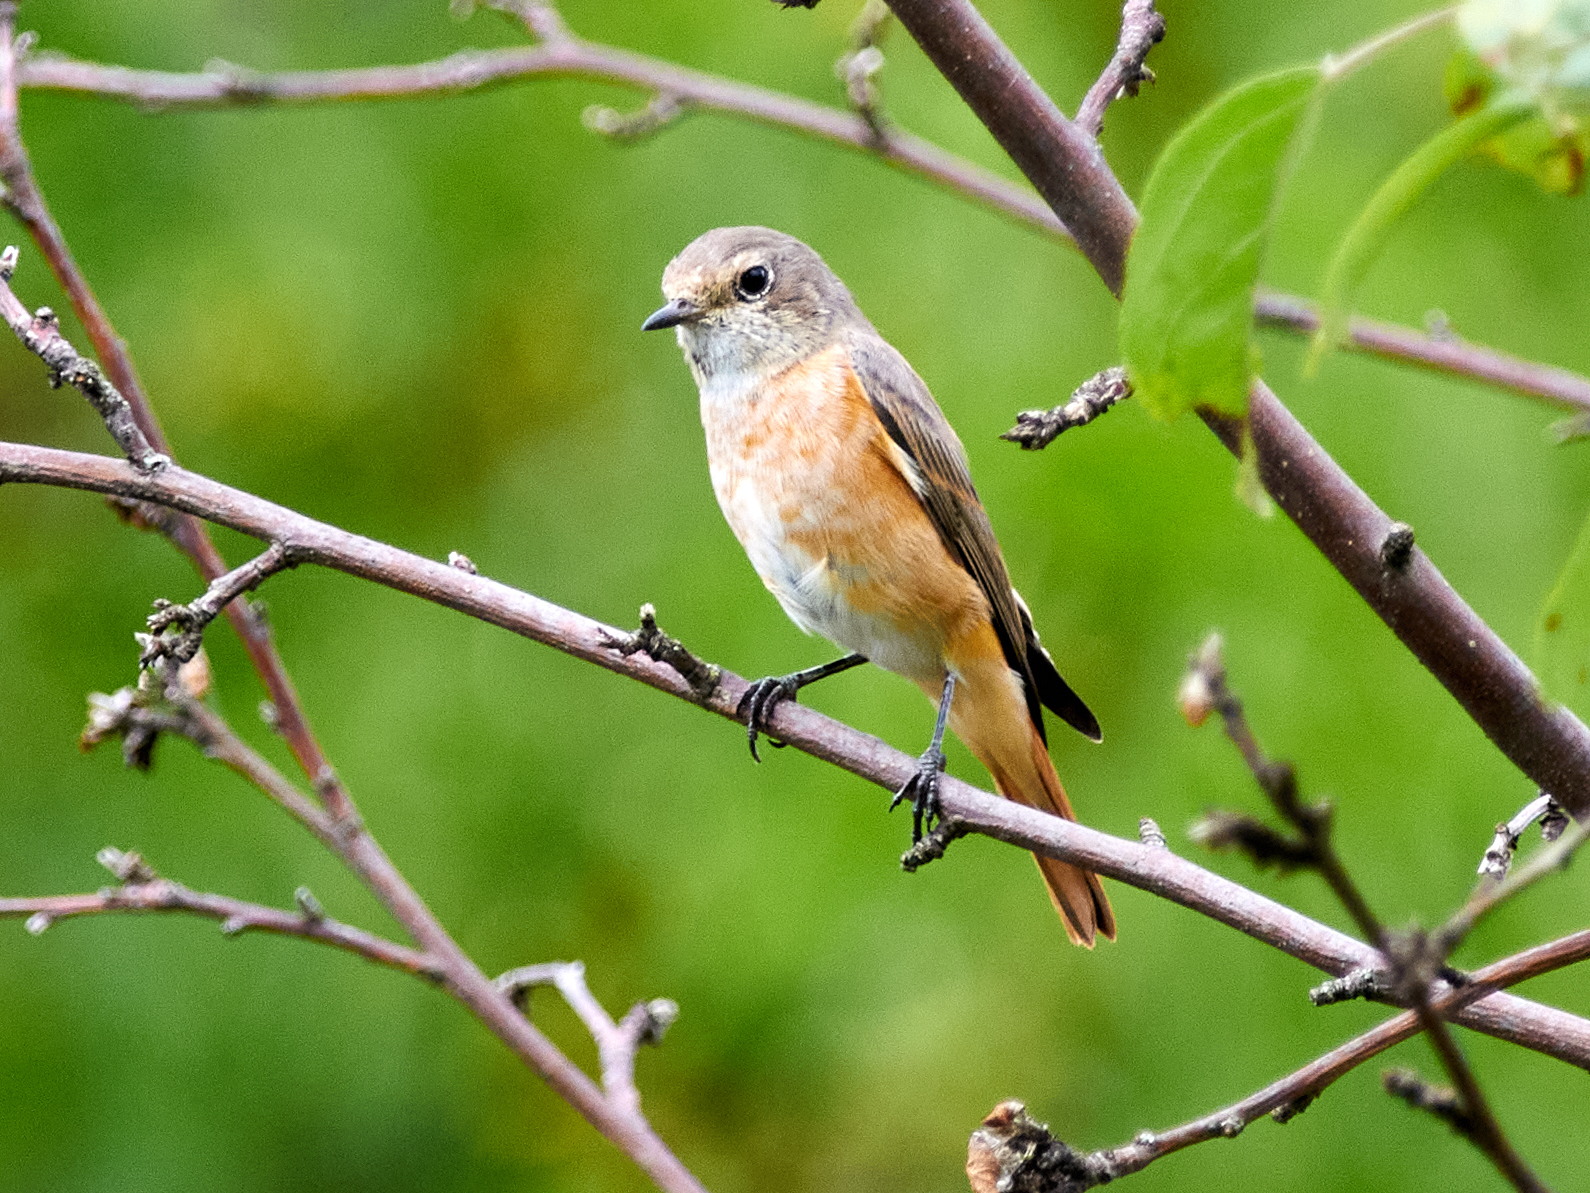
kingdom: Animalia
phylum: Chordata
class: Aves
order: Passeriformes
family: Muscicapidae
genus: Phoenicurus
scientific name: Phoenicurus phoenicurus
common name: Common redstart
